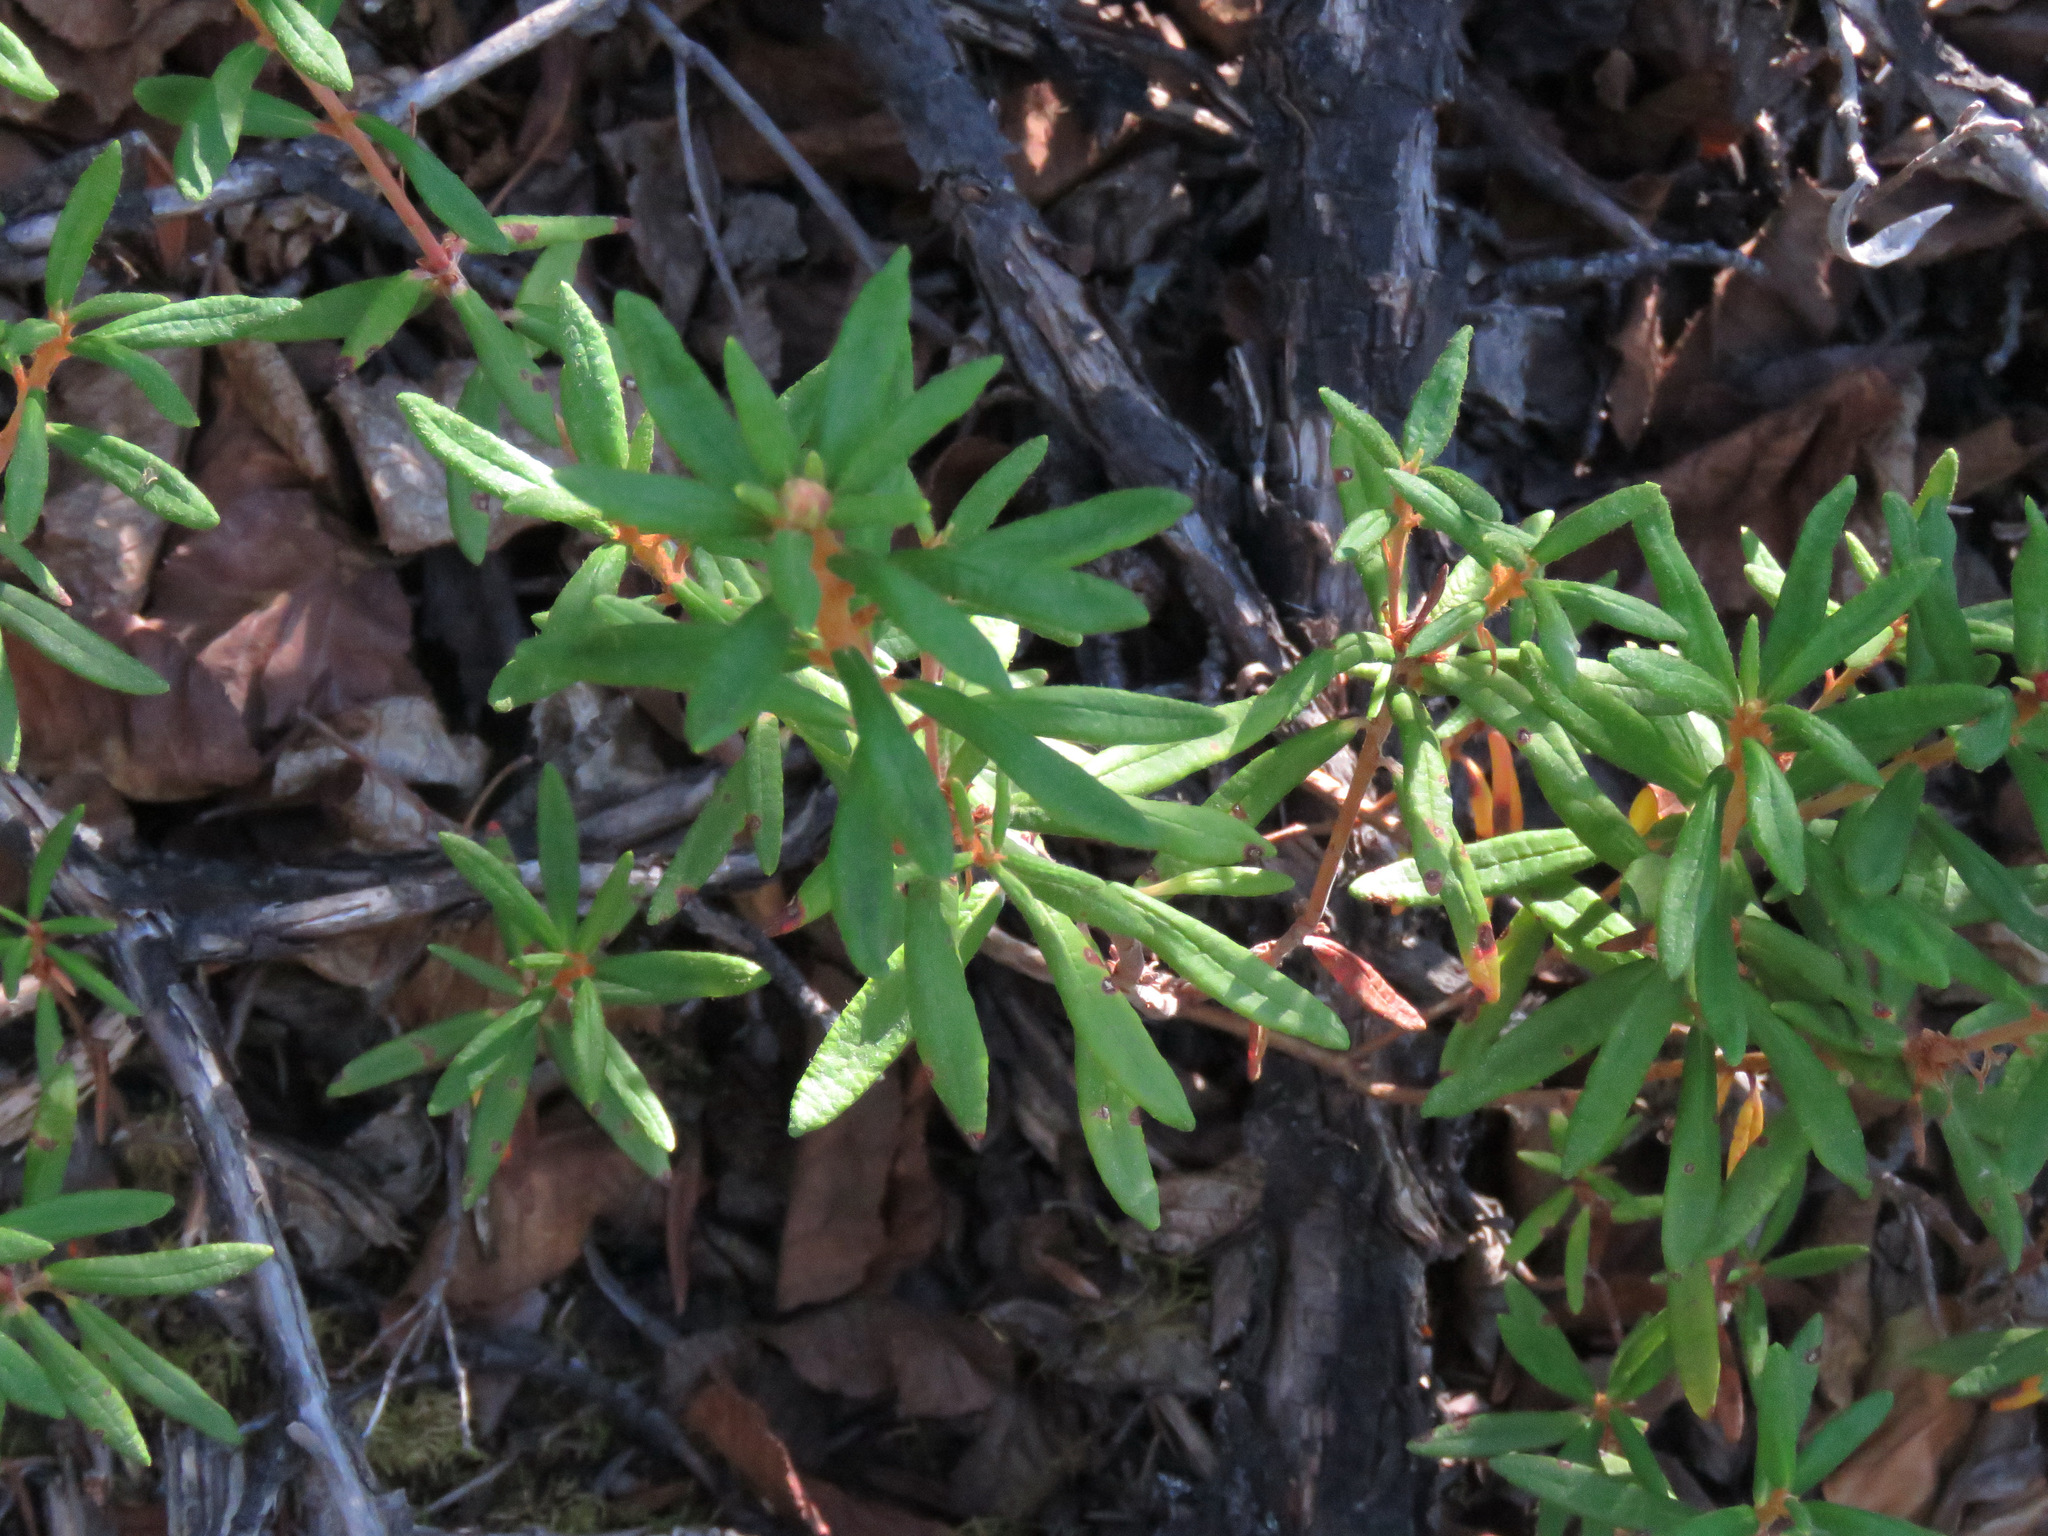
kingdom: Plantae
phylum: Tracheophyta
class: Magnoliopsida
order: Ericales
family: Ericaceae
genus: Rhododendron
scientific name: Rhododendron groenlandicum
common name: Bog labrador tea
